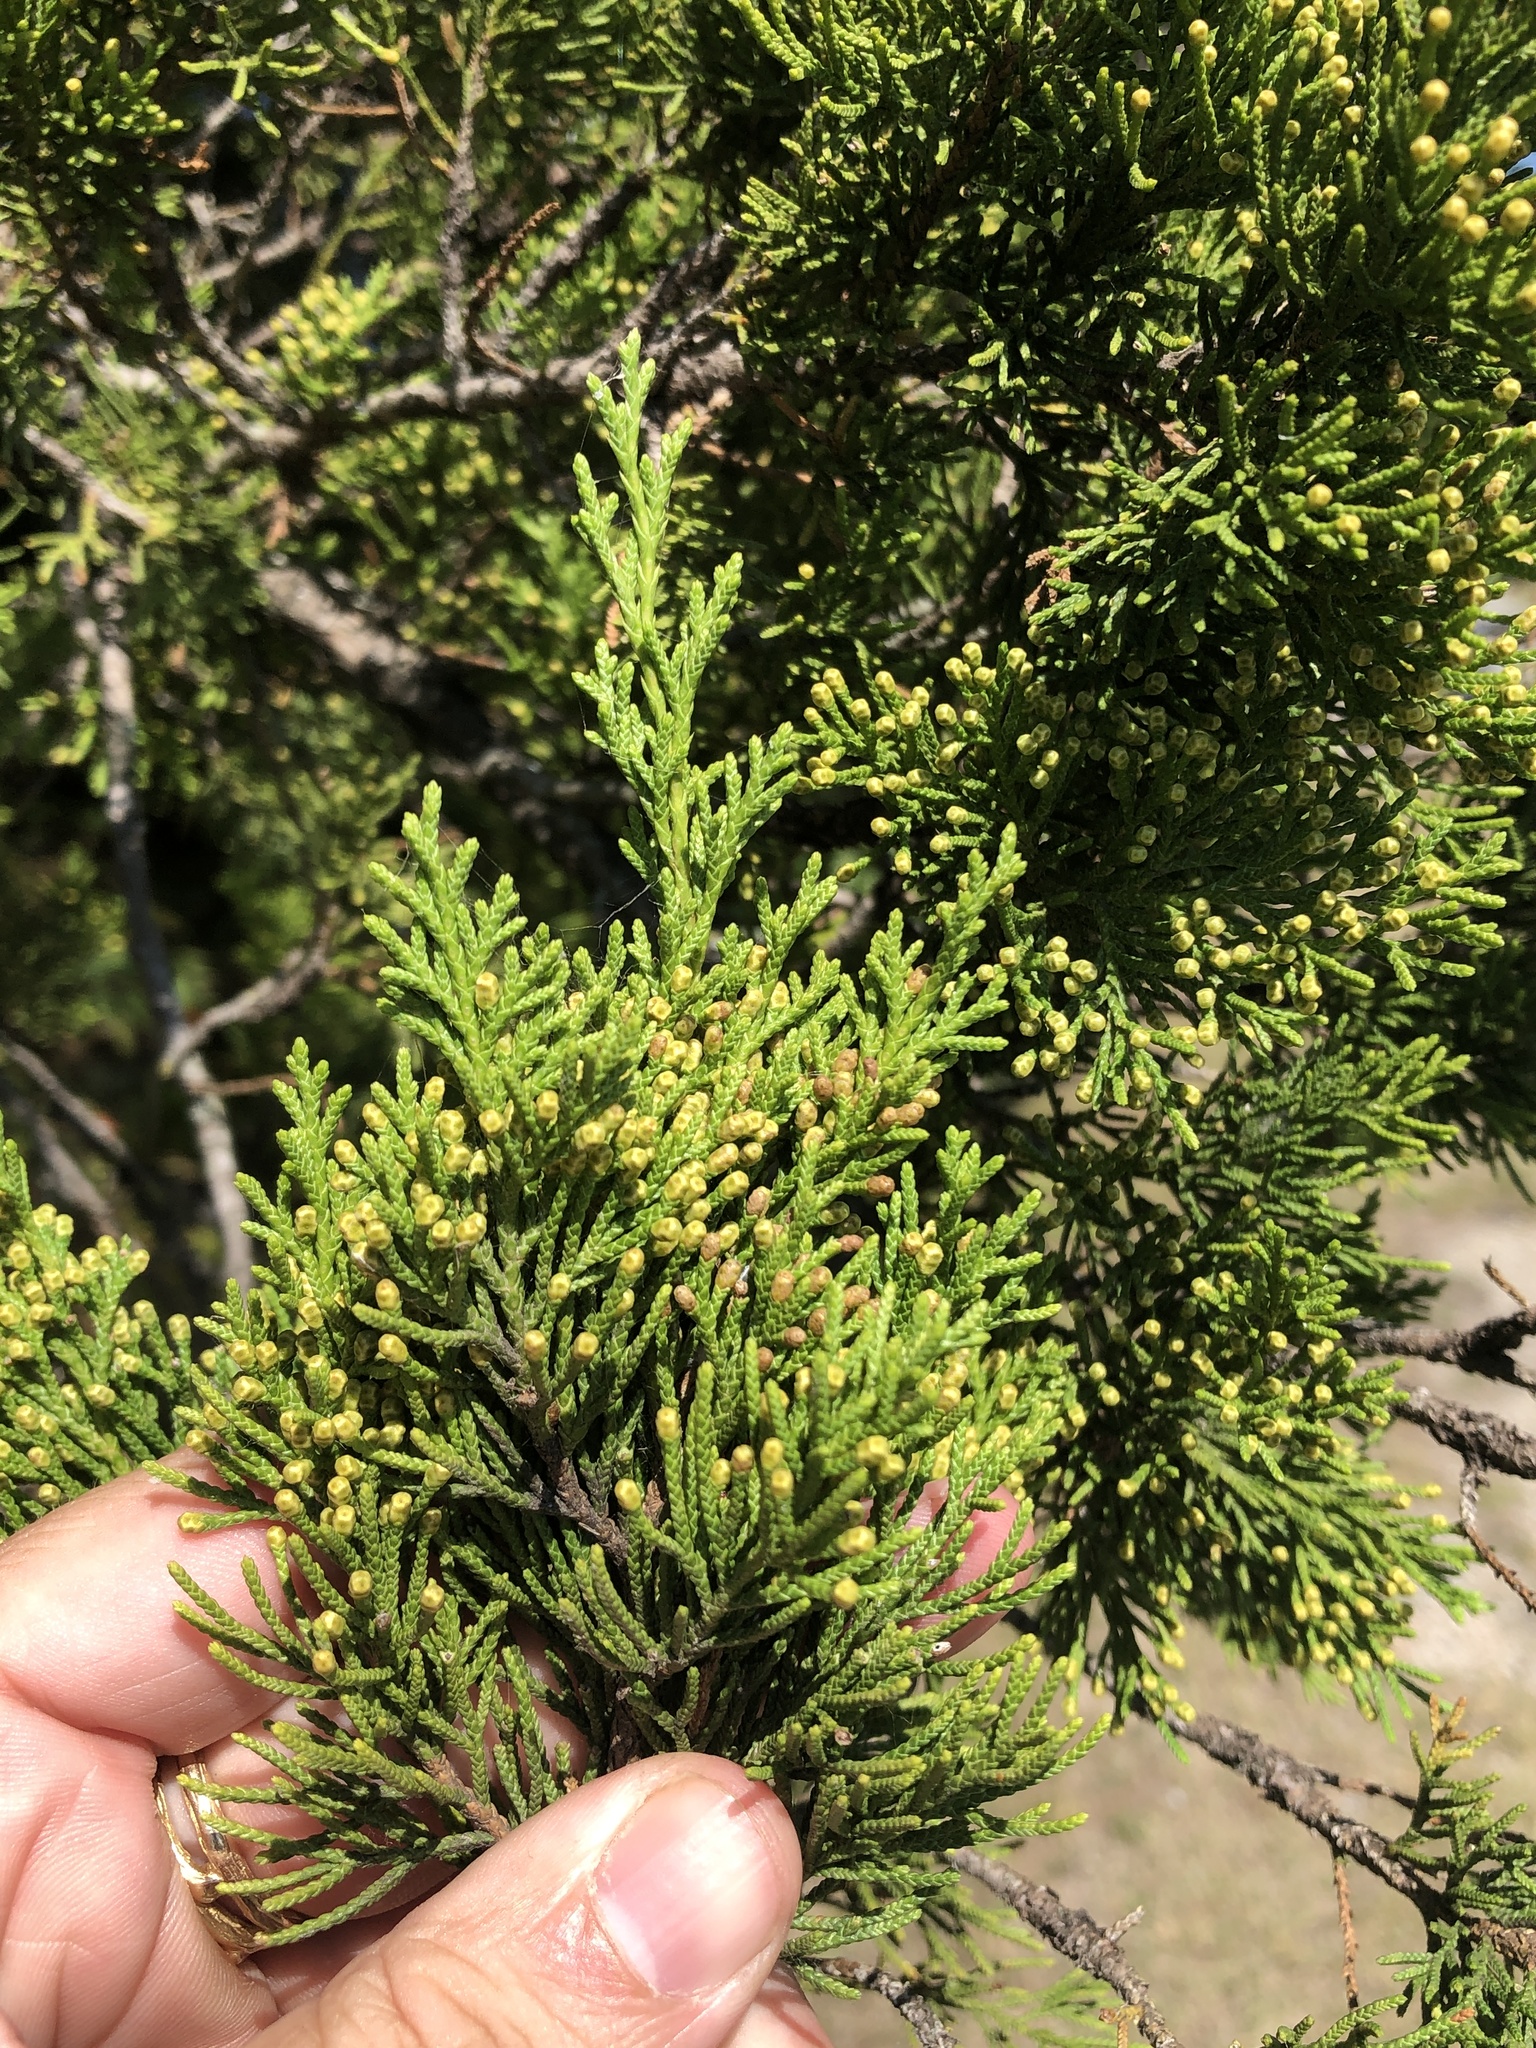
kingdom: Plantae
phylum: Tracheophyta
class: Pinopsida
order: Pinales
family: Cupressaceae
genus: Juniperus
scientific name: Juniperus ashei
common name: Mexican juniper
